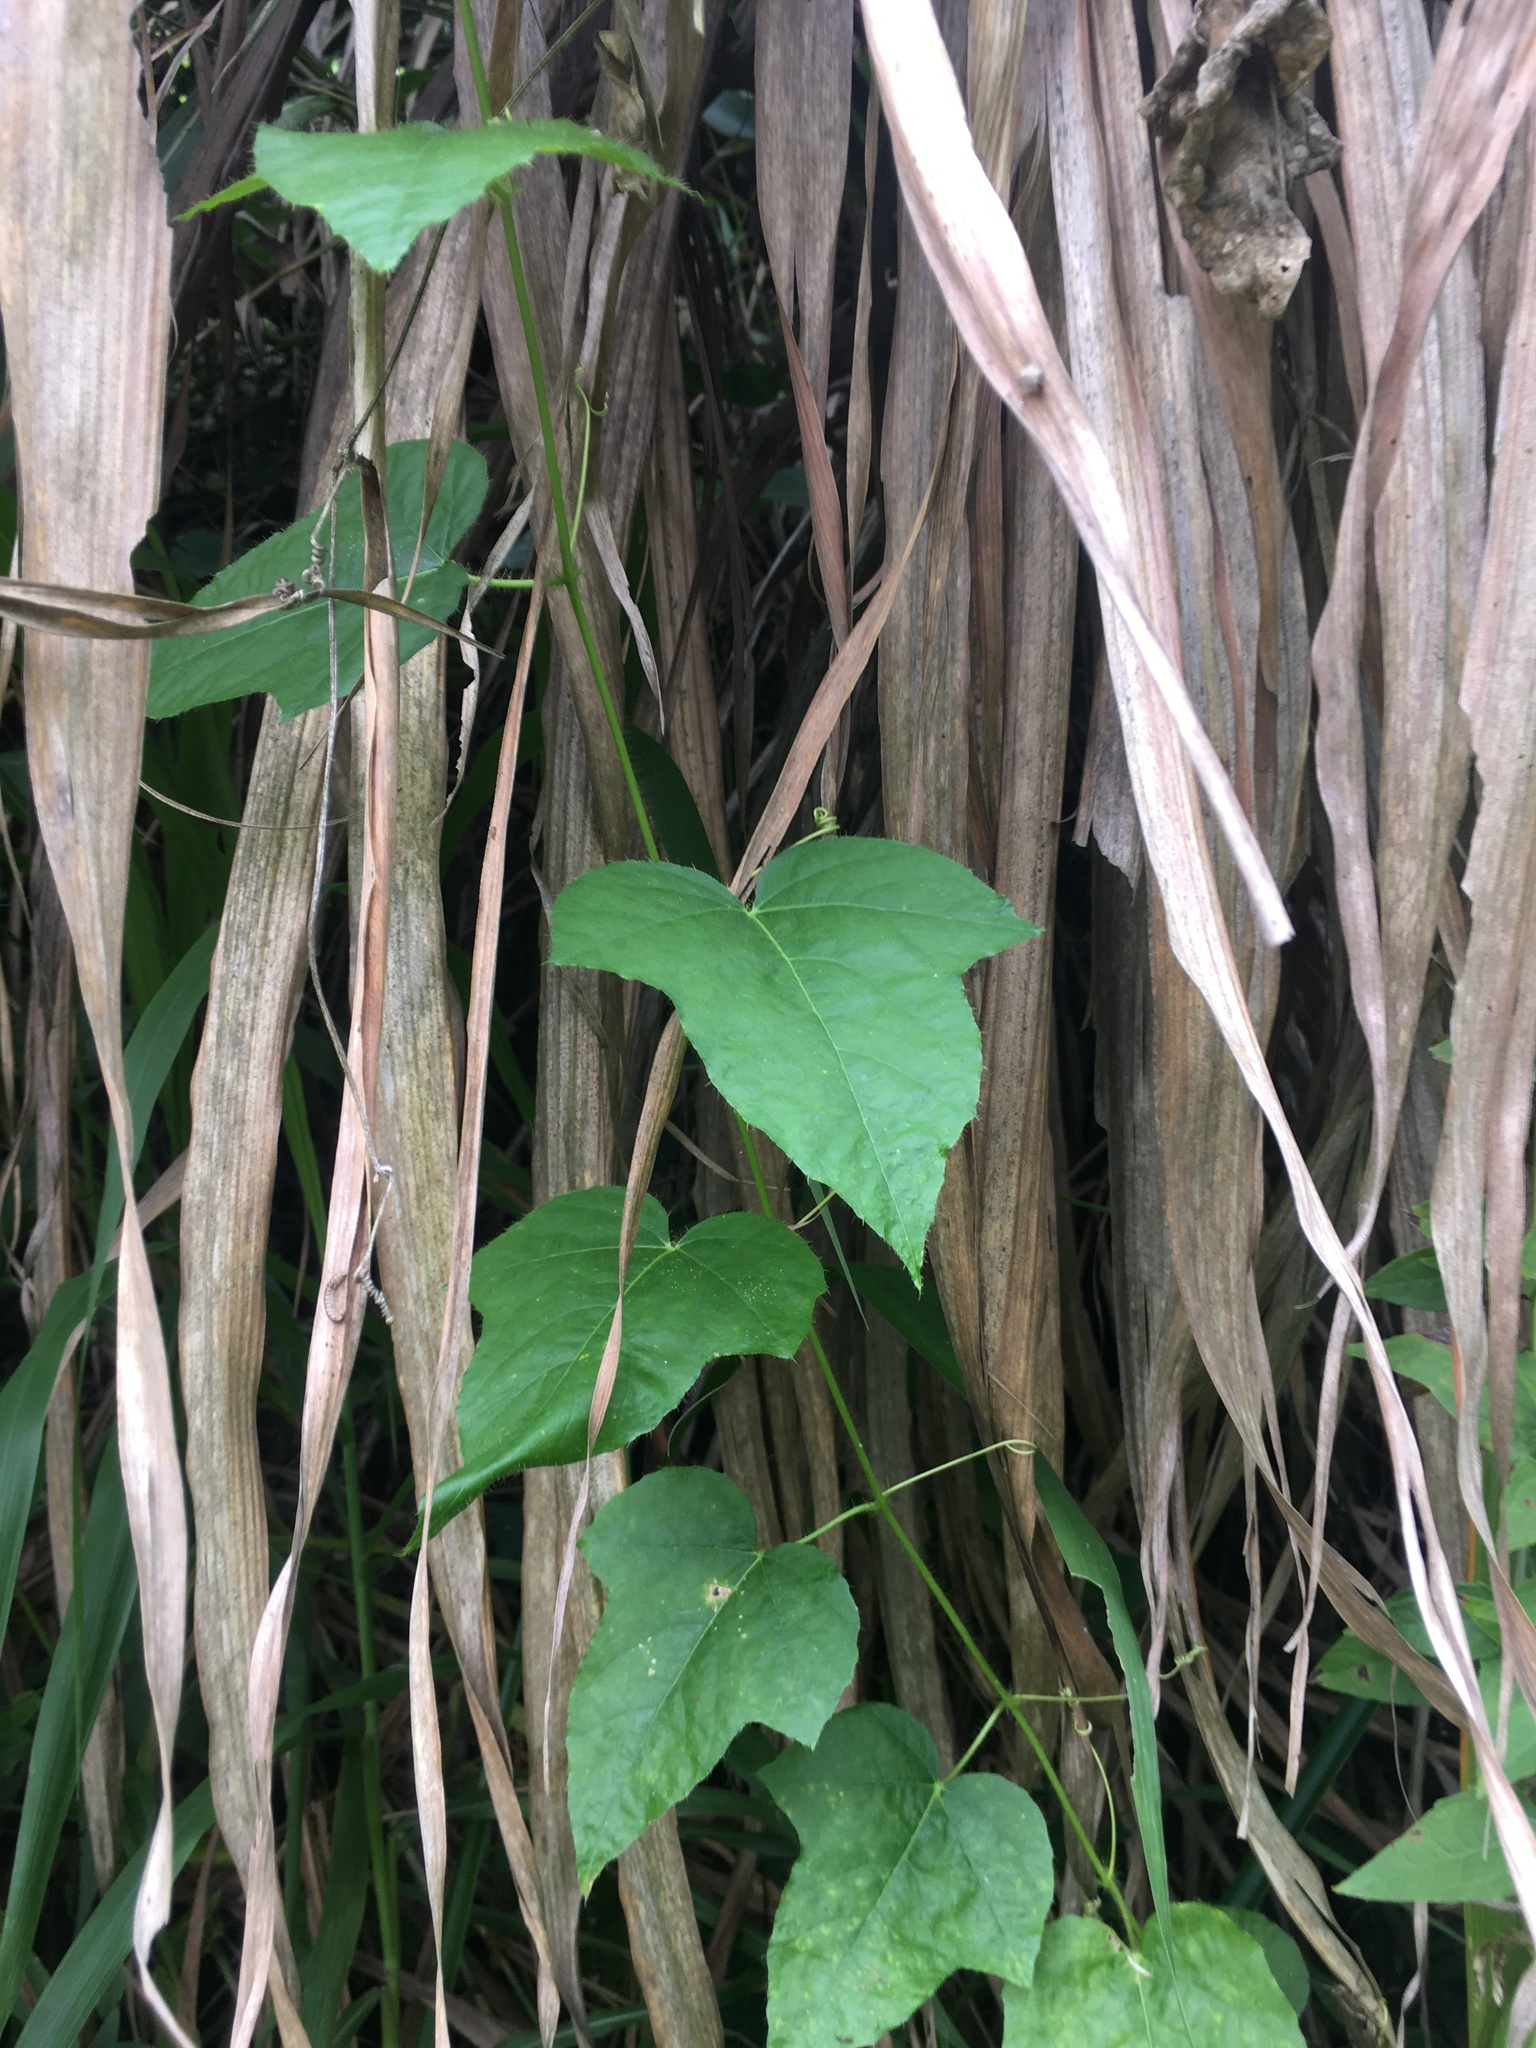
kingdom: Plantae
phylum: Tracheophyta
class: Magnoliopsida
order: Malpighiales
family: Passifloraceae
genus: Passiflora
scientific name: Passiflora vesicaria
